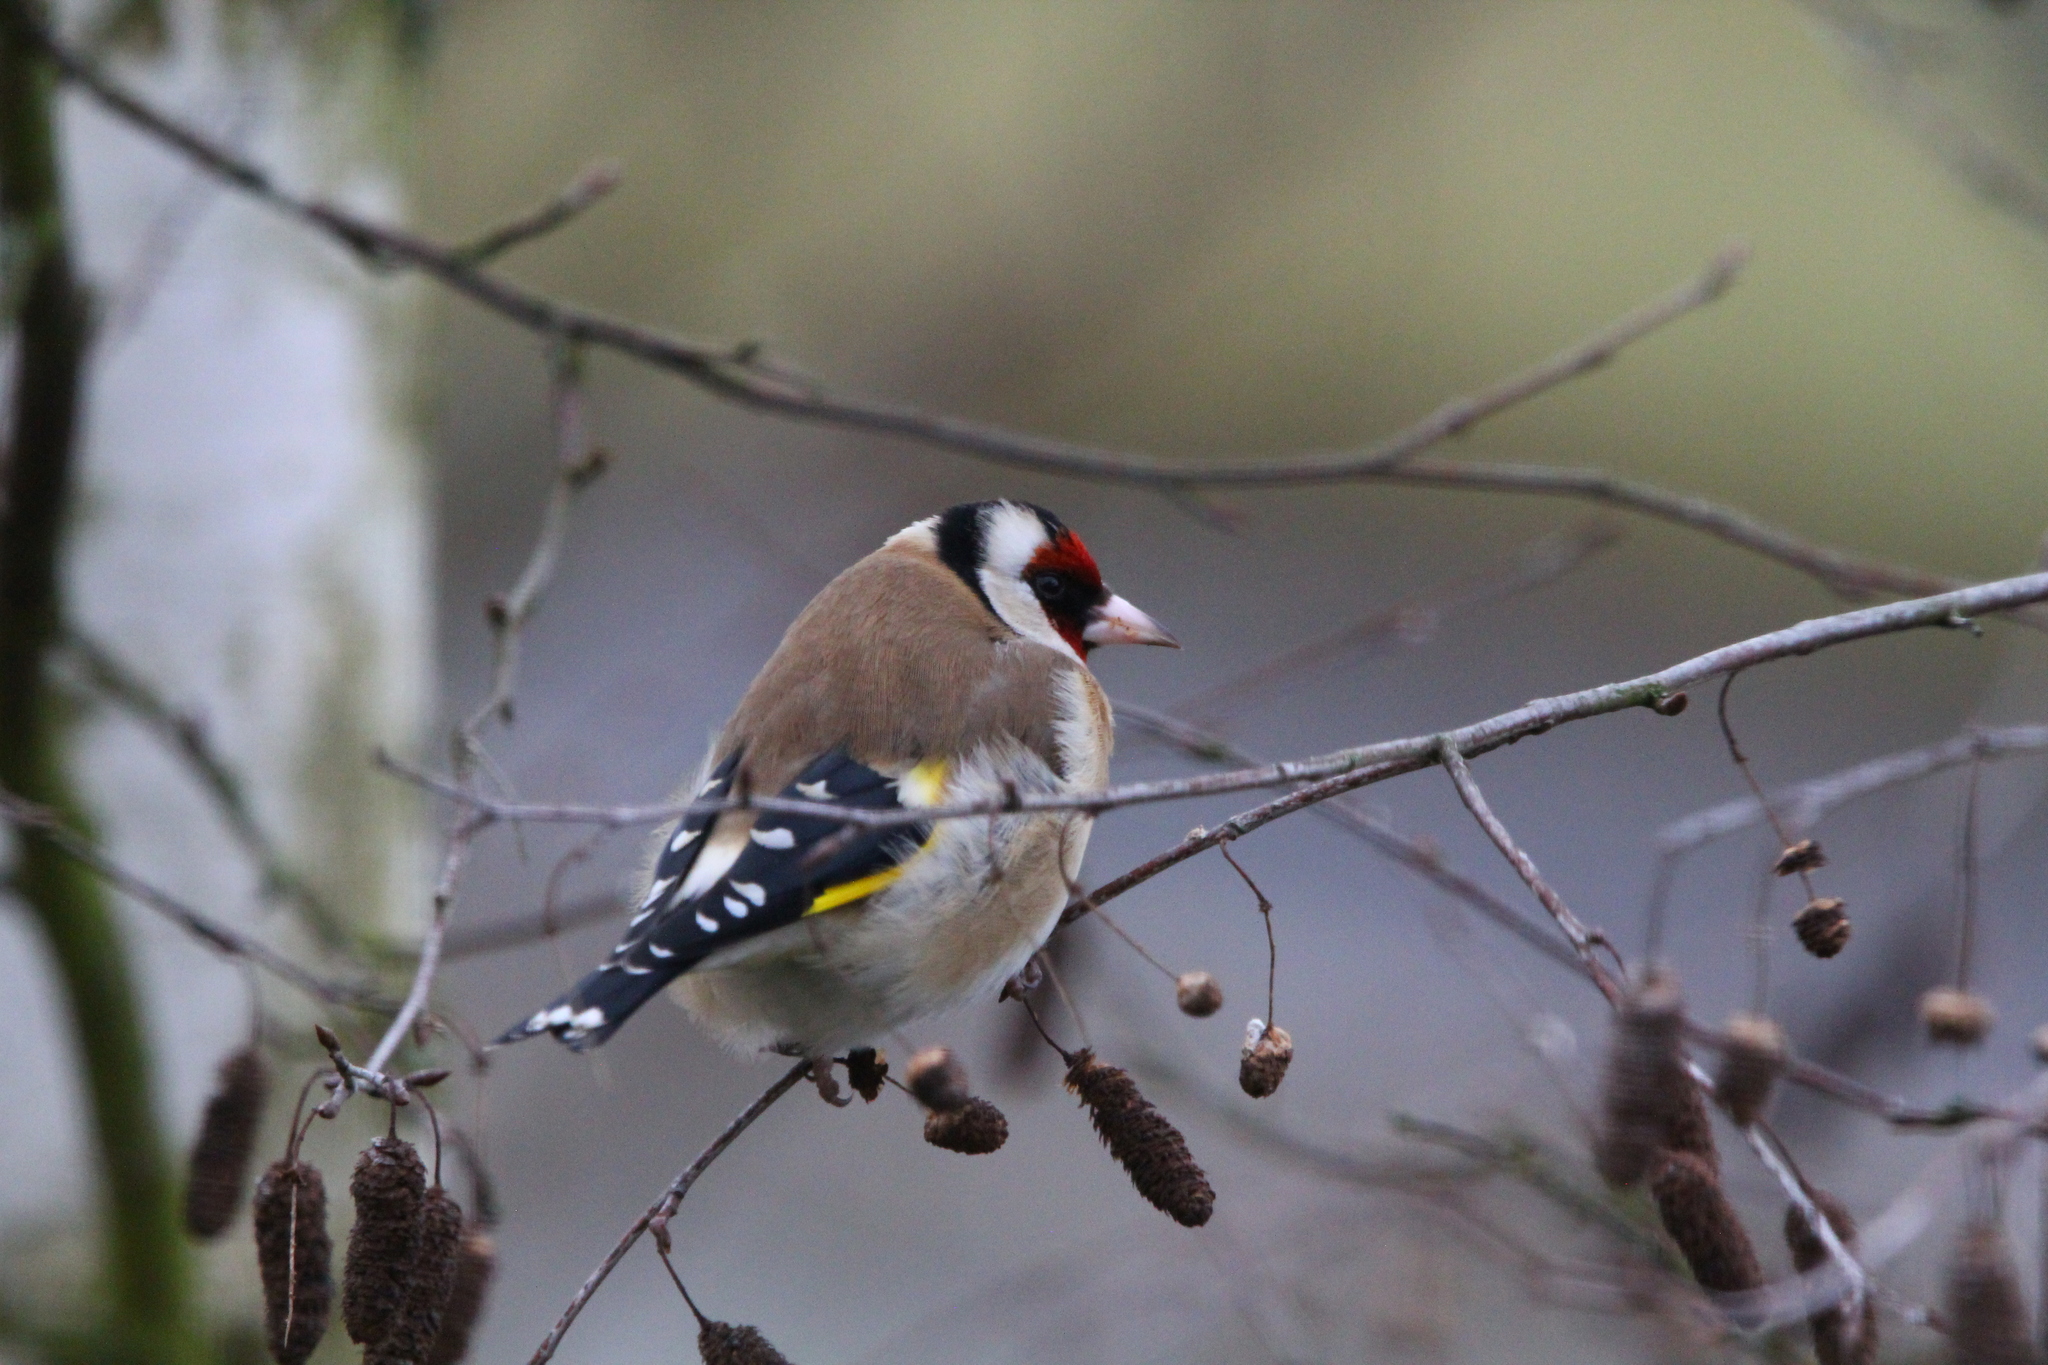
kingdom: Animalia
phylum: Chordata
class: Aves
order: Passeriformes
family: Fringillidae
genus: Carduelis
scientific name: Carduelis carduelis
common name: European goldfinch
